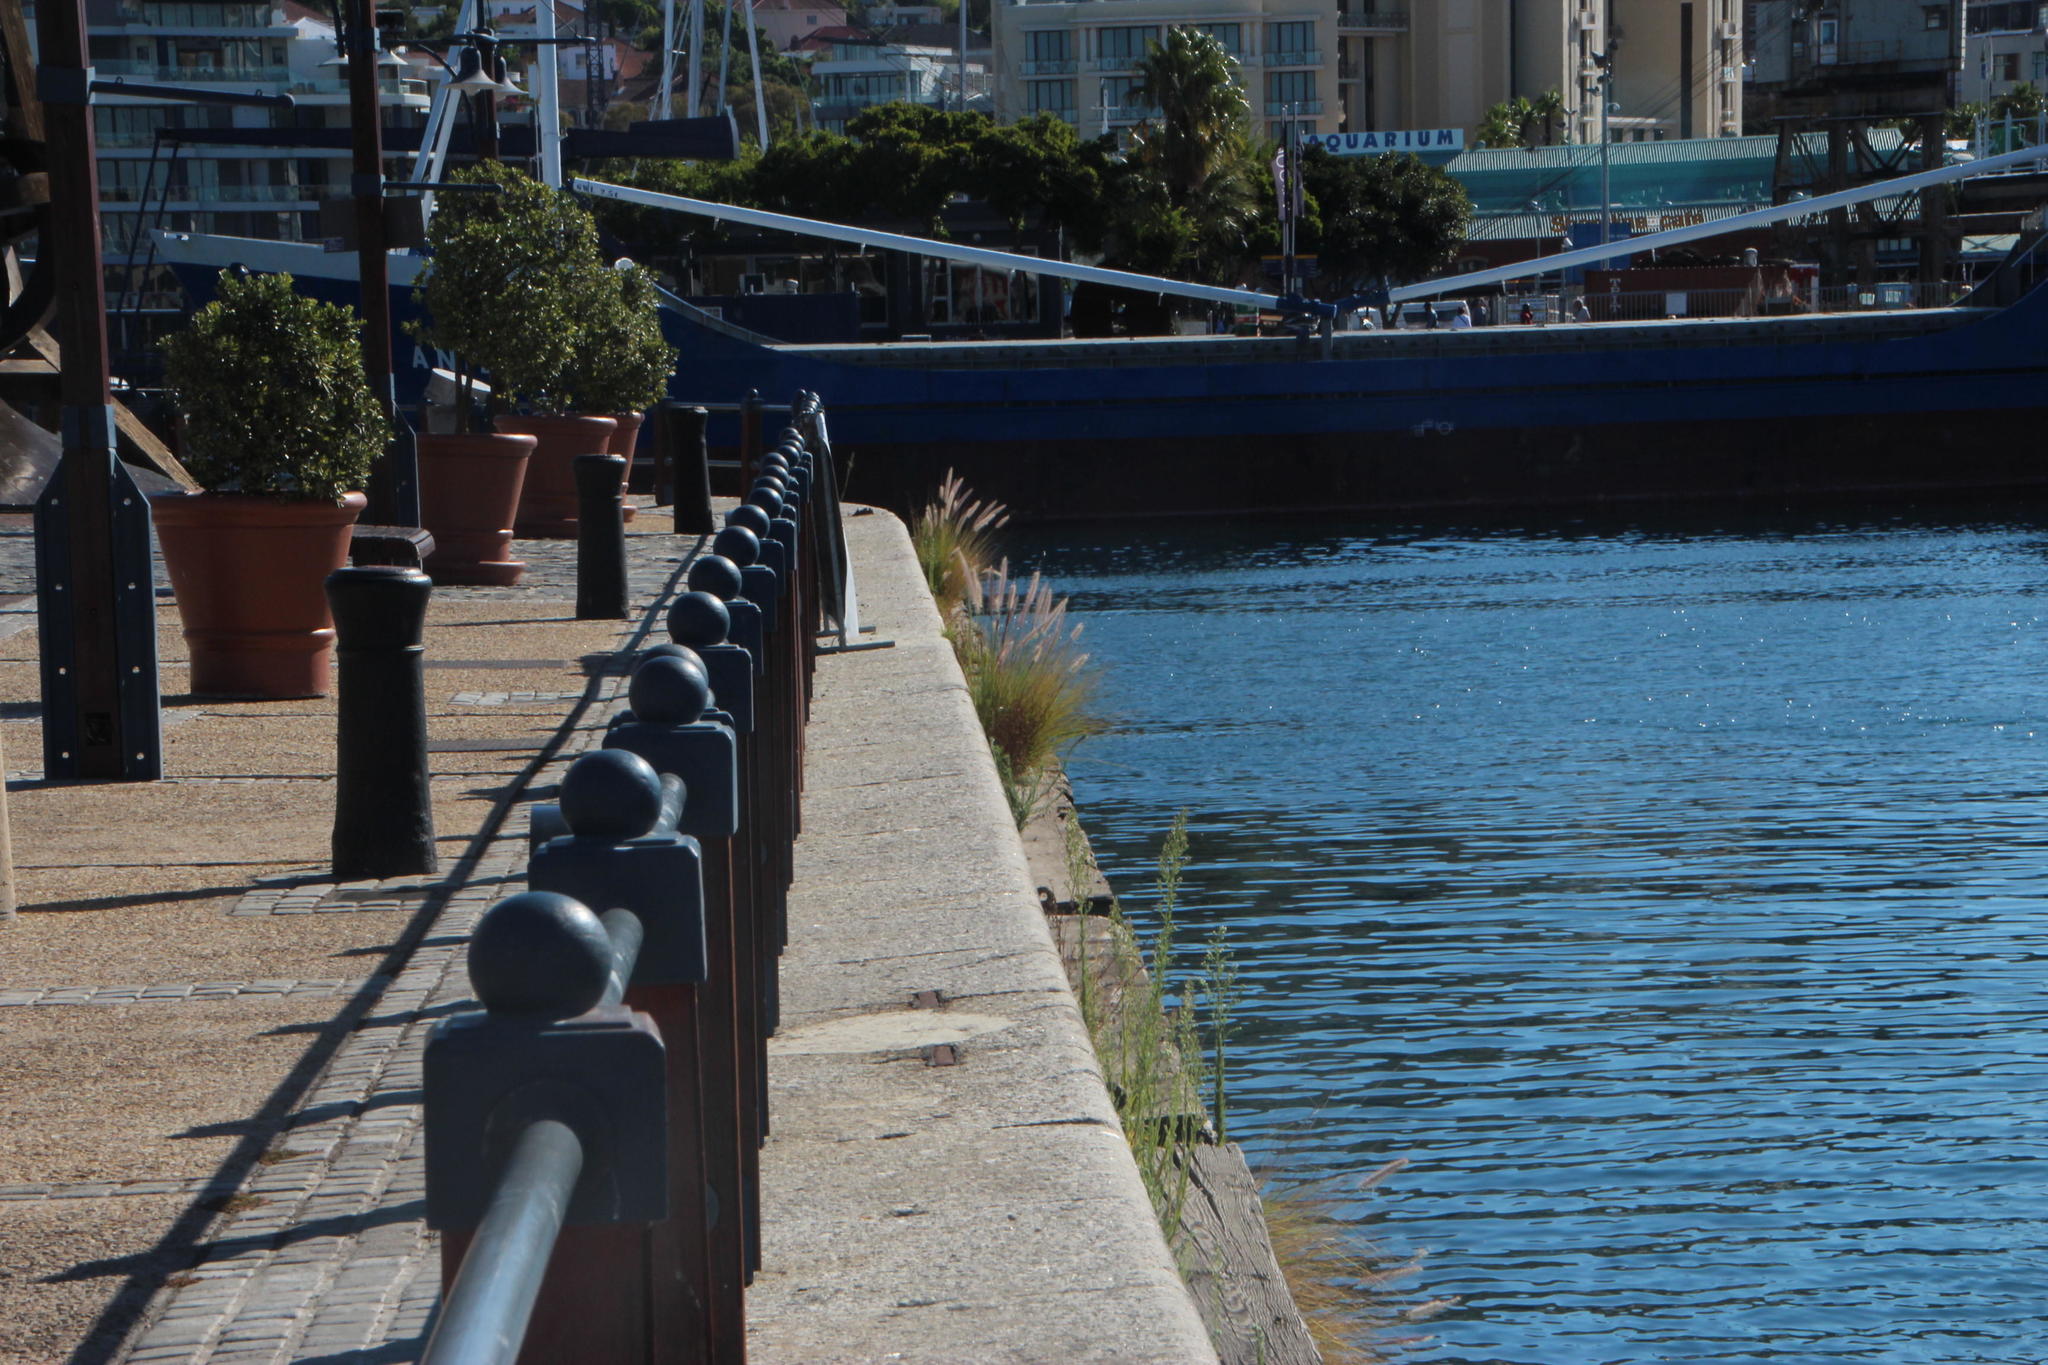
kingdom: Plantae
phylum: Tracheophyta
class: Liliopsida
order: Poales
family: Poaceae
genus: Cenchrus
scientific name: Cenchrus setaceus
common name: Crimson fountaingrass
